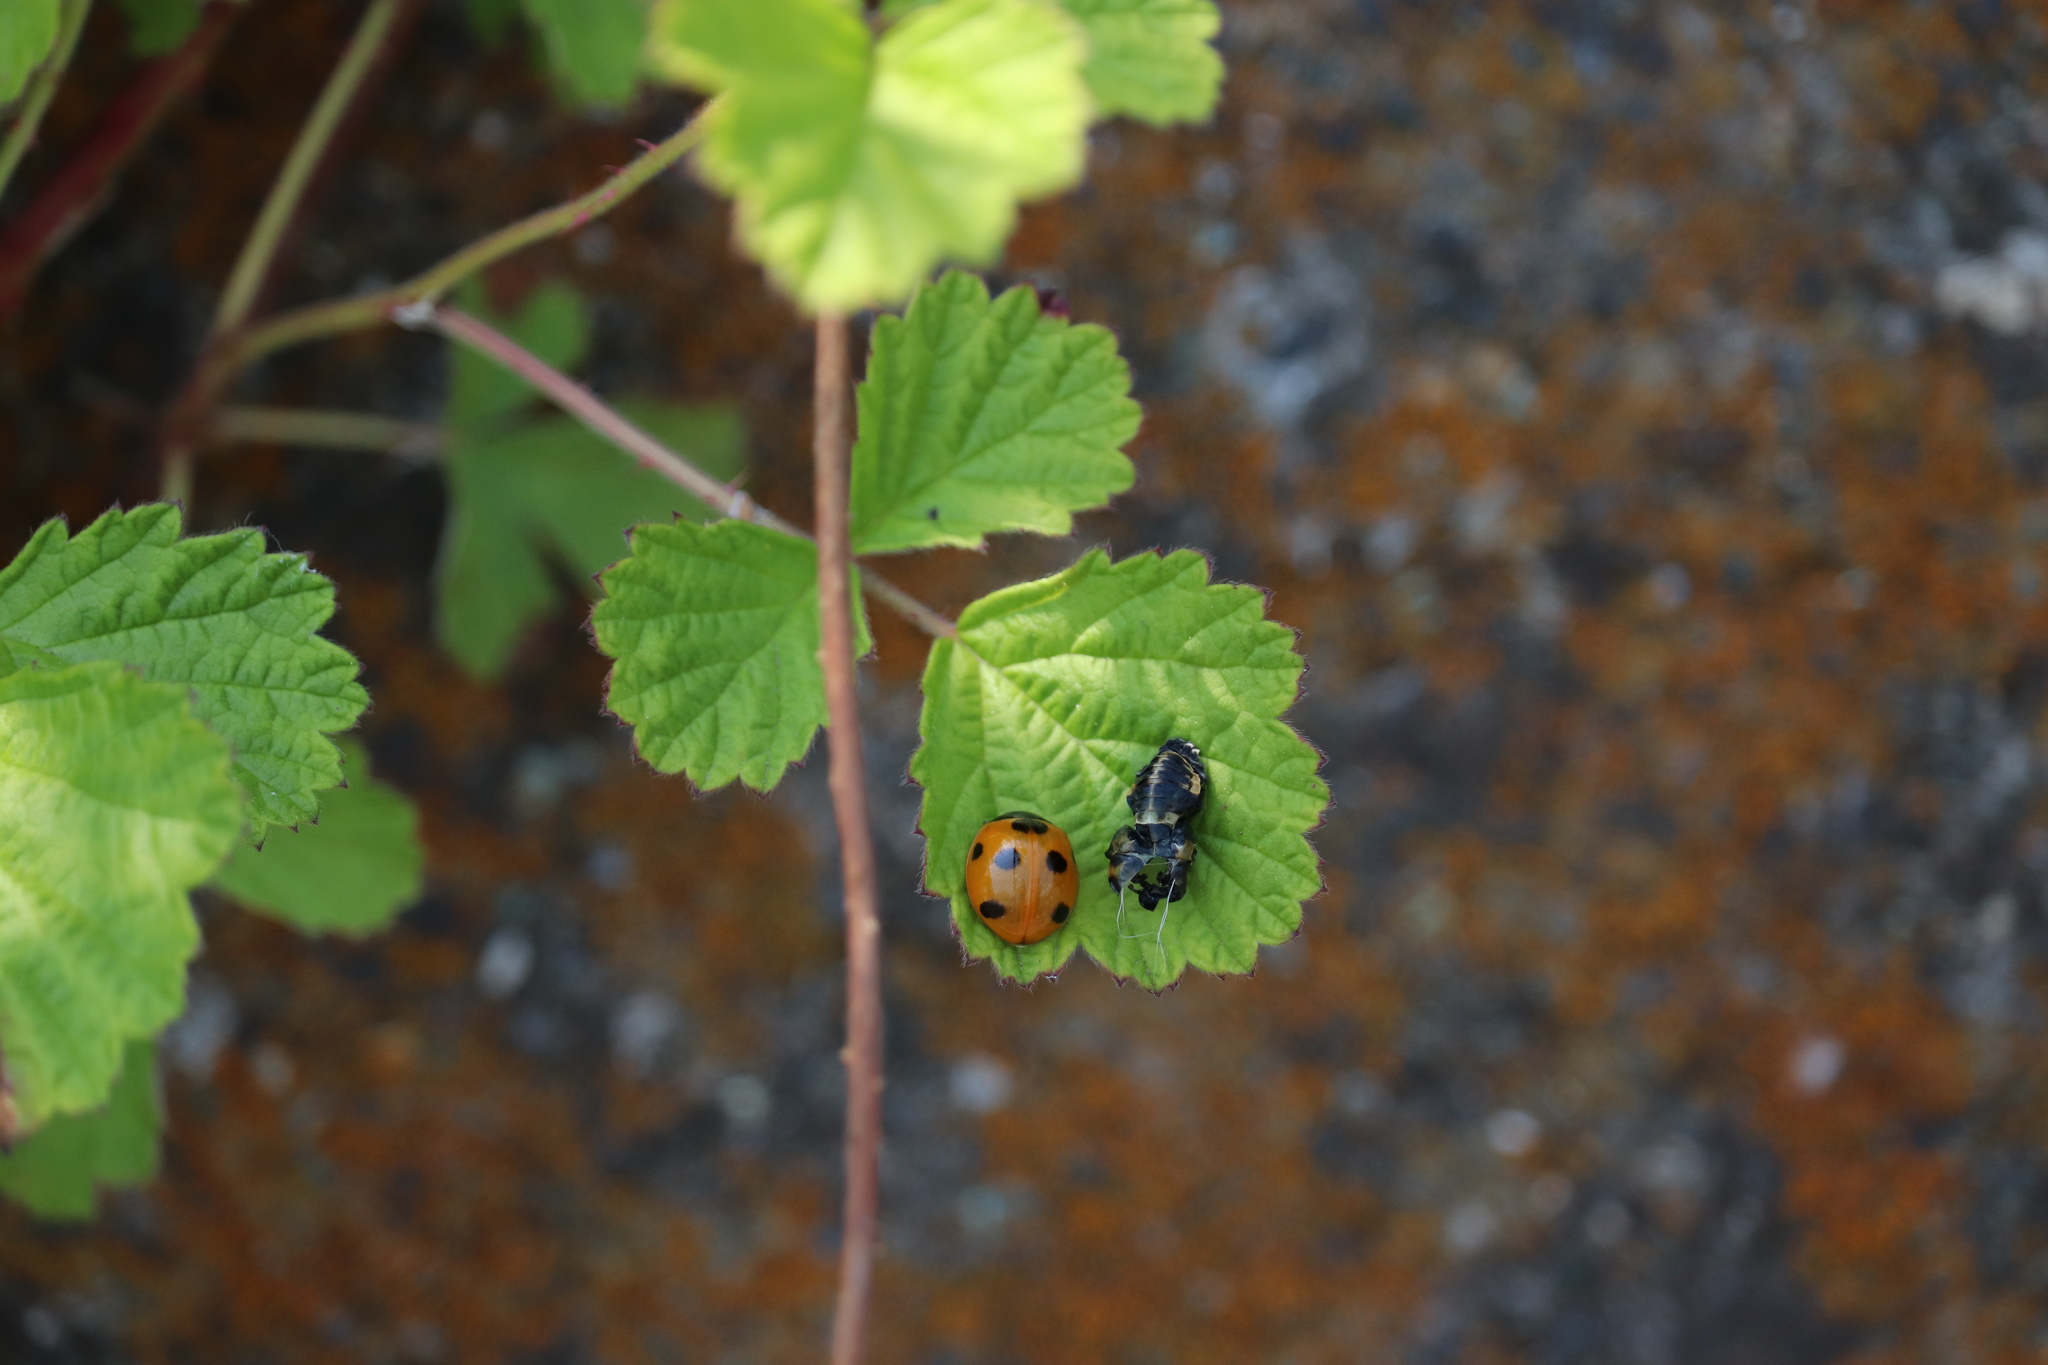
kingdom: Animalia
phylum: Arthropoda
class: Insecta
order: Coleoptera
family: Coccinellidae
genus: Coccinella
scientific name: Coccinella septempunctata
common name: Sevenspotted lady beetle
